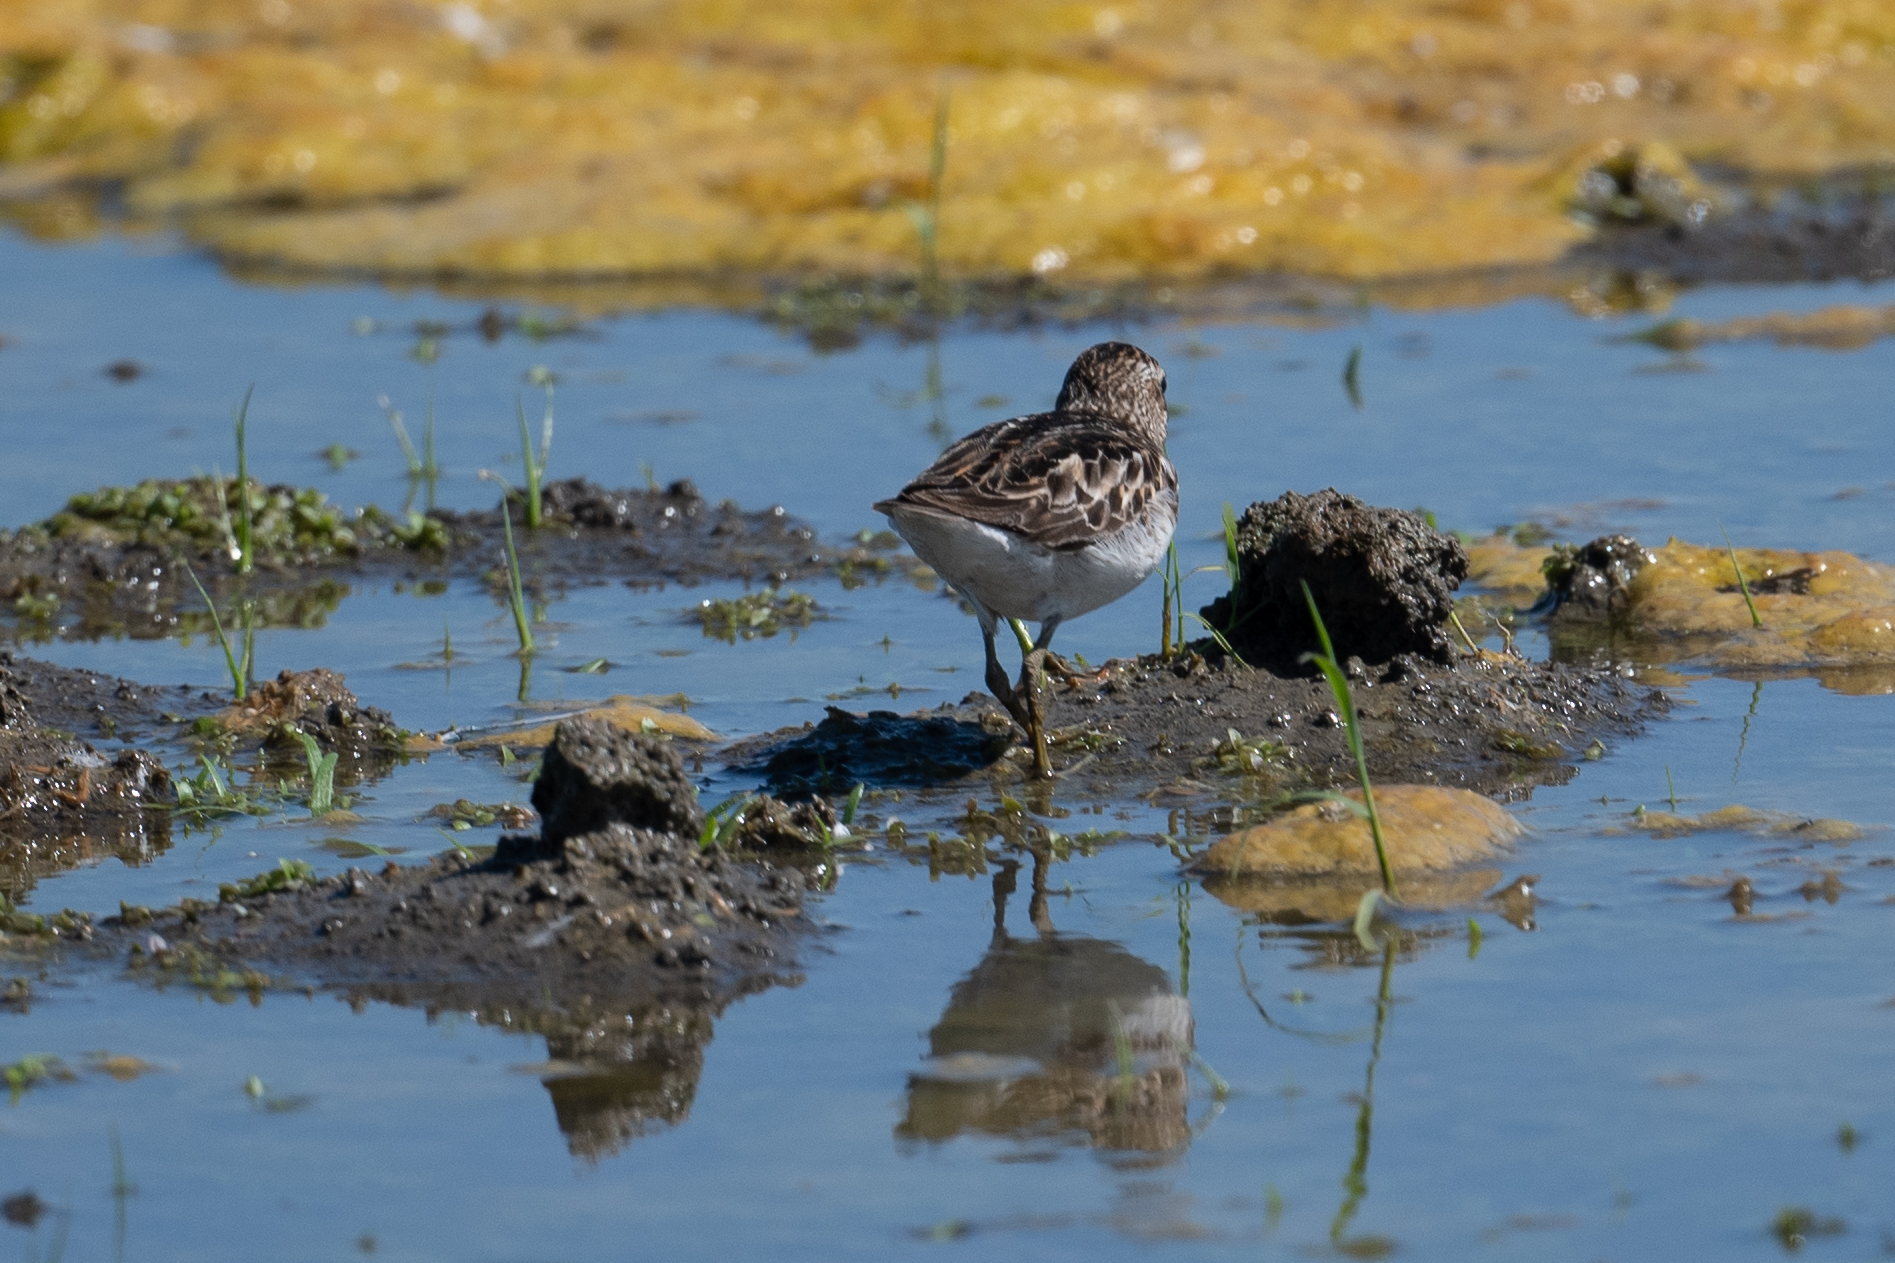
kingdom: Animalia
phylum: Chordata
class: Aves
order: Charadriiformes
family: Scolopacidae
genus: Calidris
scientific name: Calidris minutilla
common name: Least sandpiper
